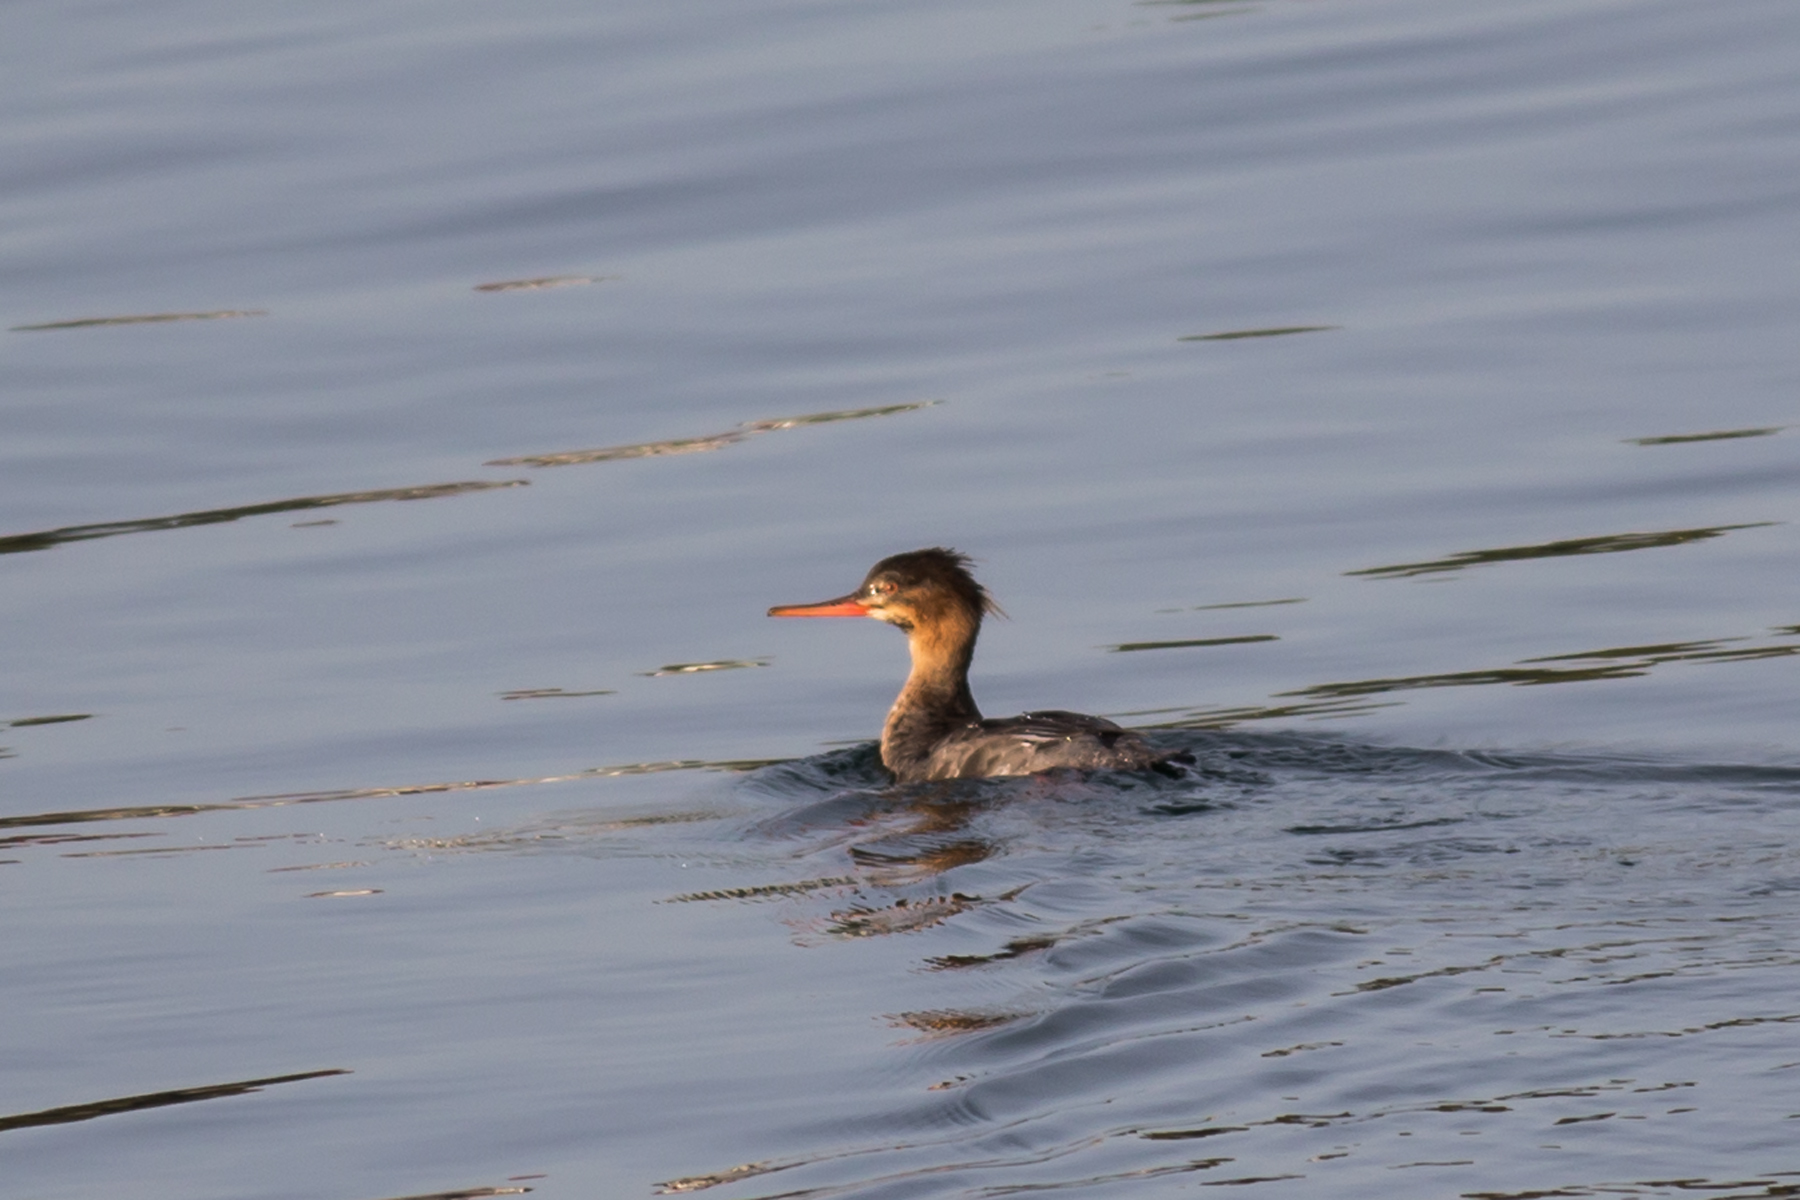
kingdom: Animalia
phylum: Chordata
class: Aves
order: Anseriformes
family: Anatidae
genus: Mergus
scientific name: Mergus serrator
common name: Red-breasted merganser
